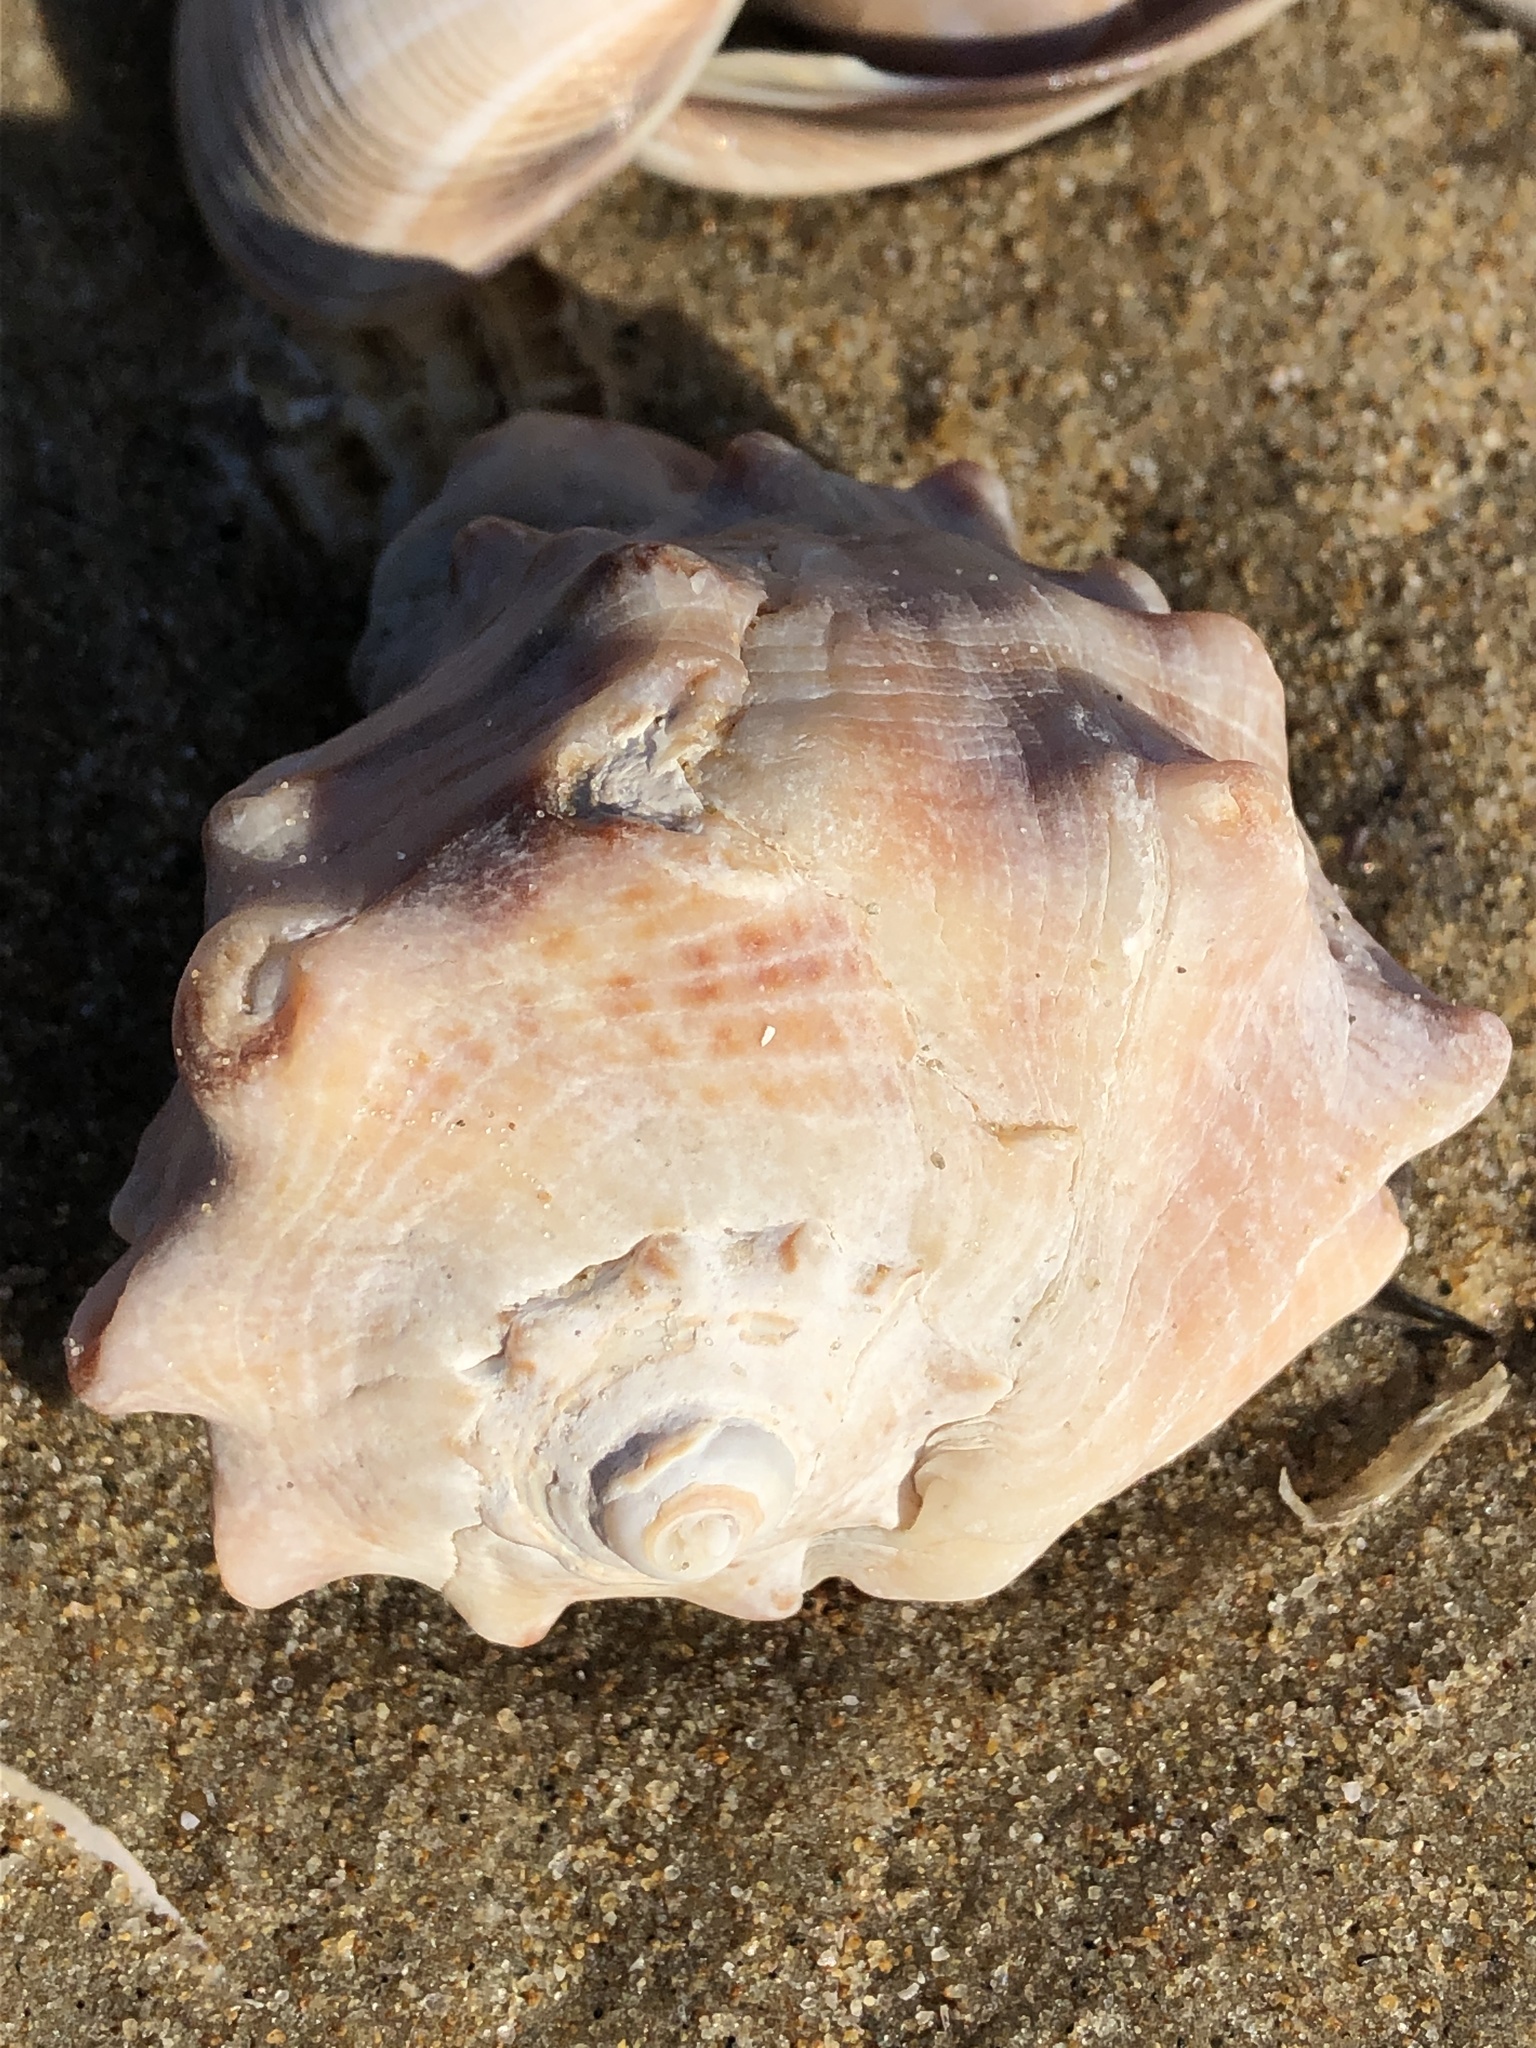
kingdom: Animalia
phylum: Mollusca
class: Gastropoda
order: Neogastropoda
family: Muricidae
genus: Rapana
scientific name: Rapana venosa
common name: Veined rapa whelk
